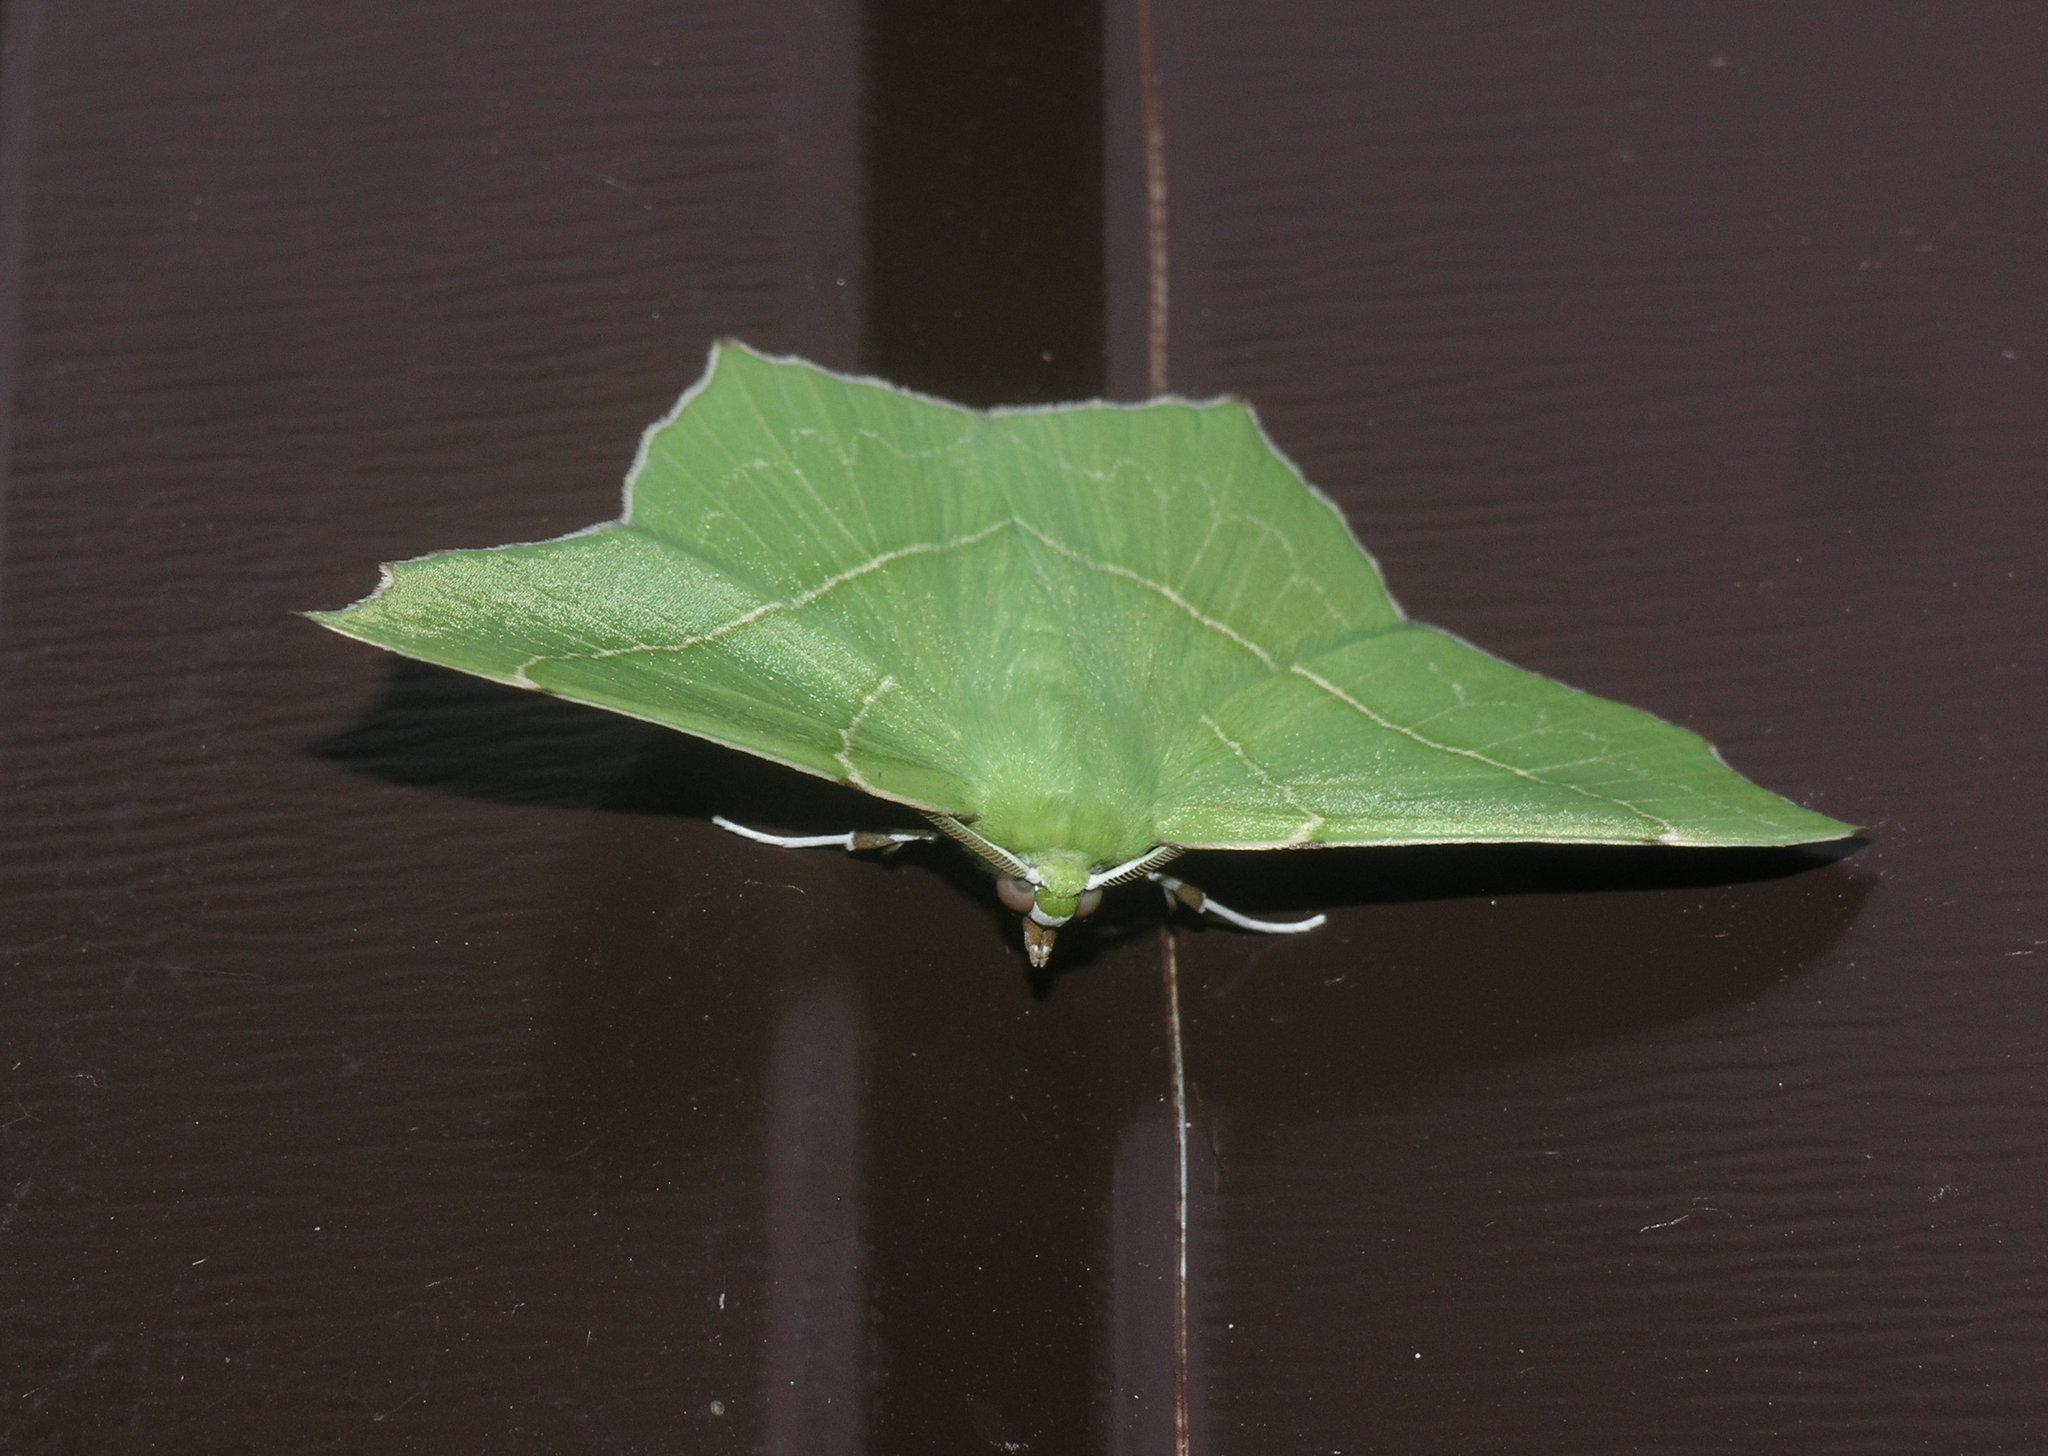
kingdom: Animalia
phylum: Arthropoda
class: Insecta
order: Lepidoptera
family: Geometridae
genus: Geometra
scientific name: Geometra ussuriensis
